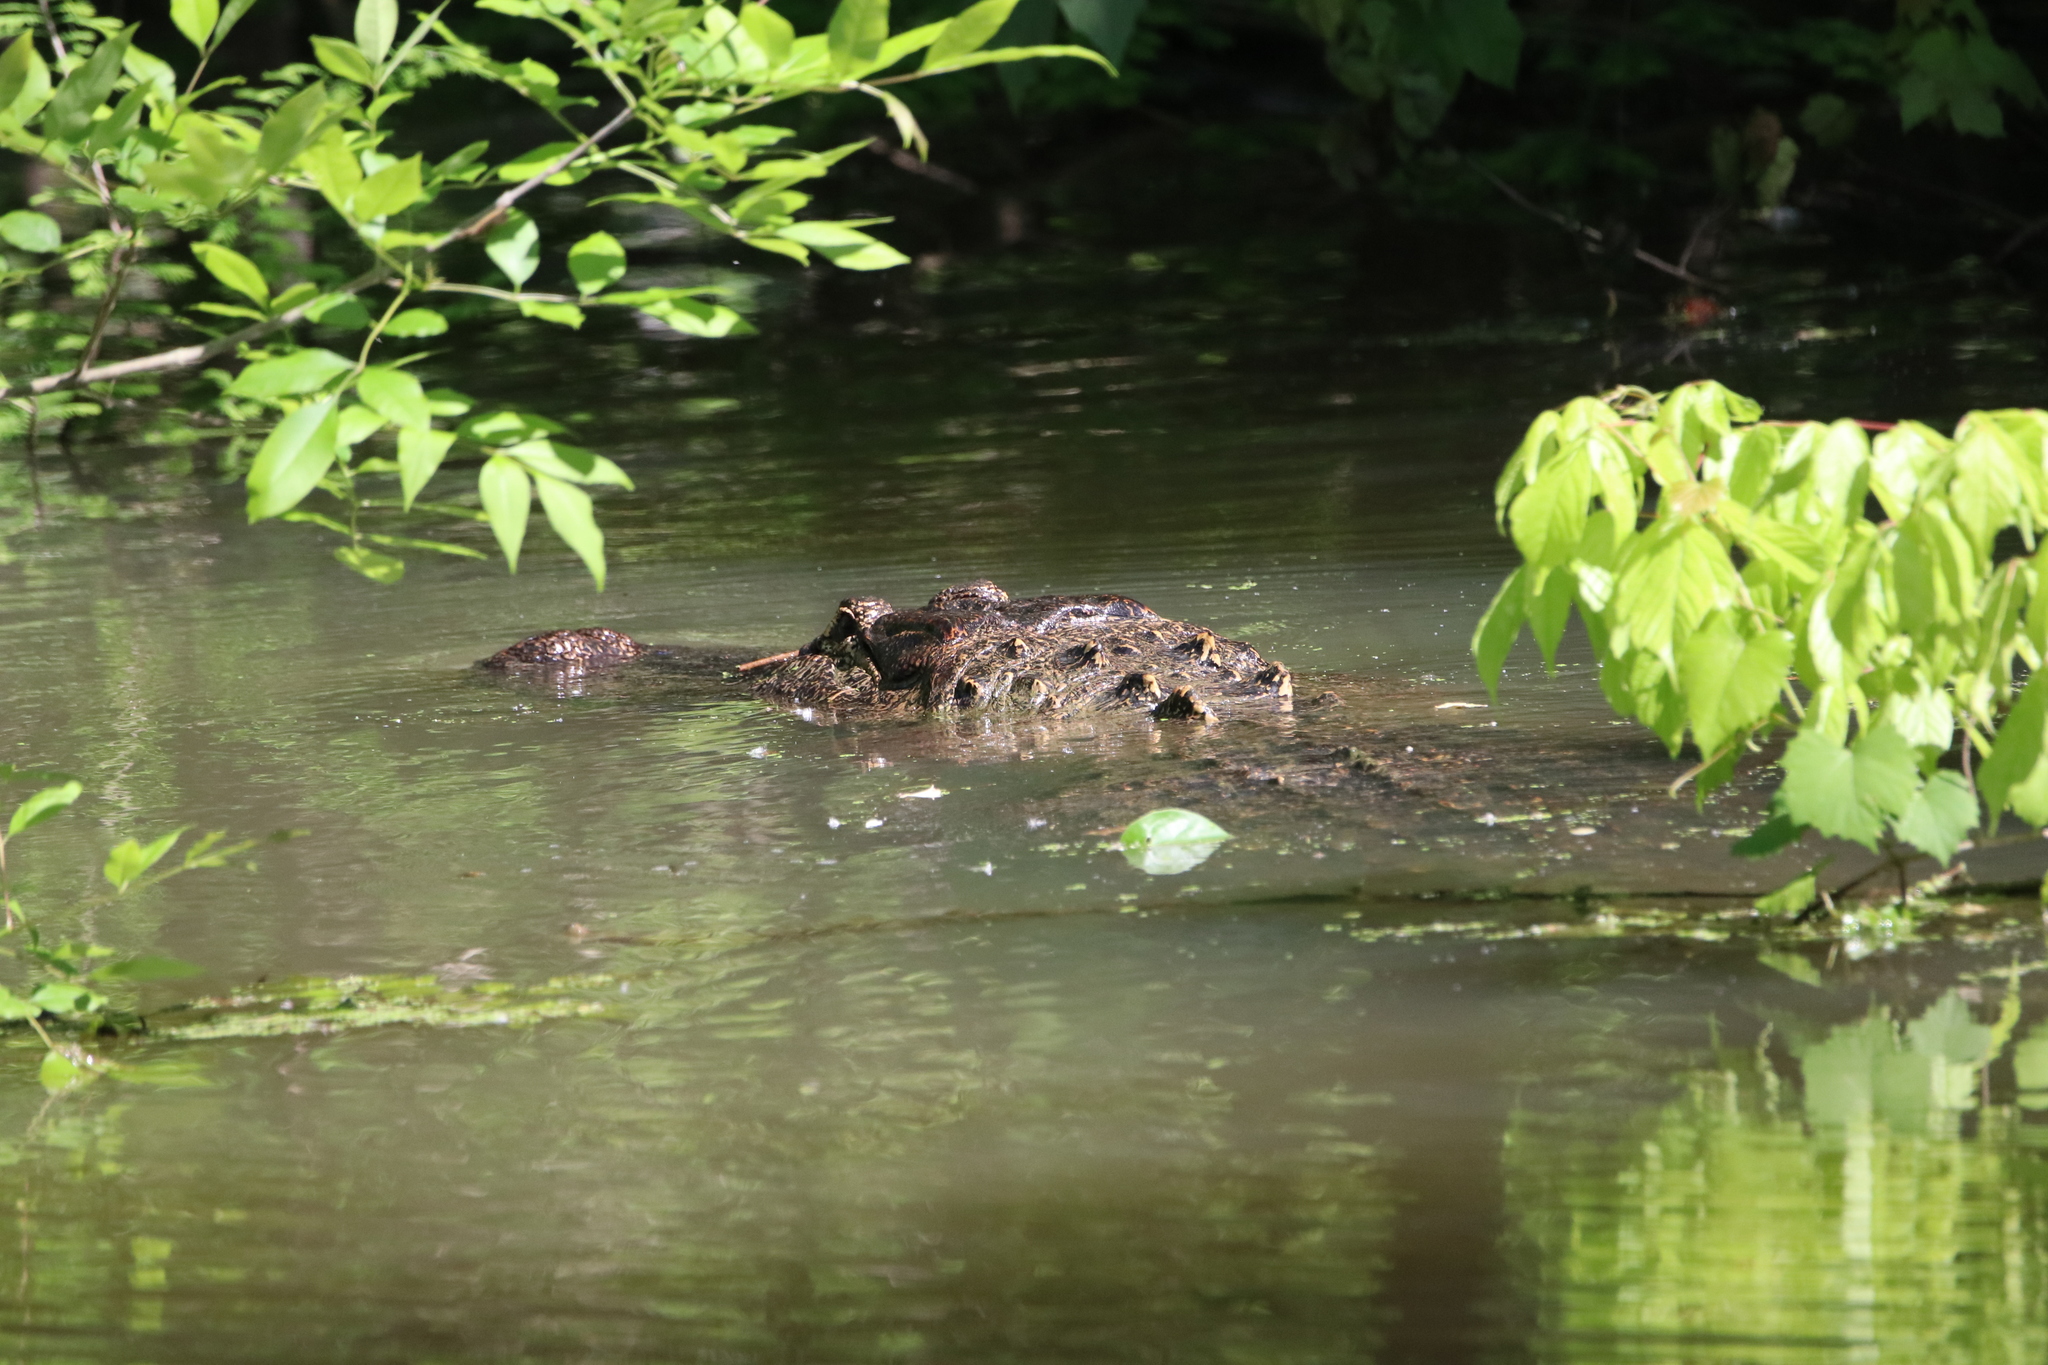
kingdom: Animalia
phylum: Chordata
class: Crocodylia
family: Alligatoridae
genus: Alligator
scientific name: Alligator mississippiensis
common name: American alligator
